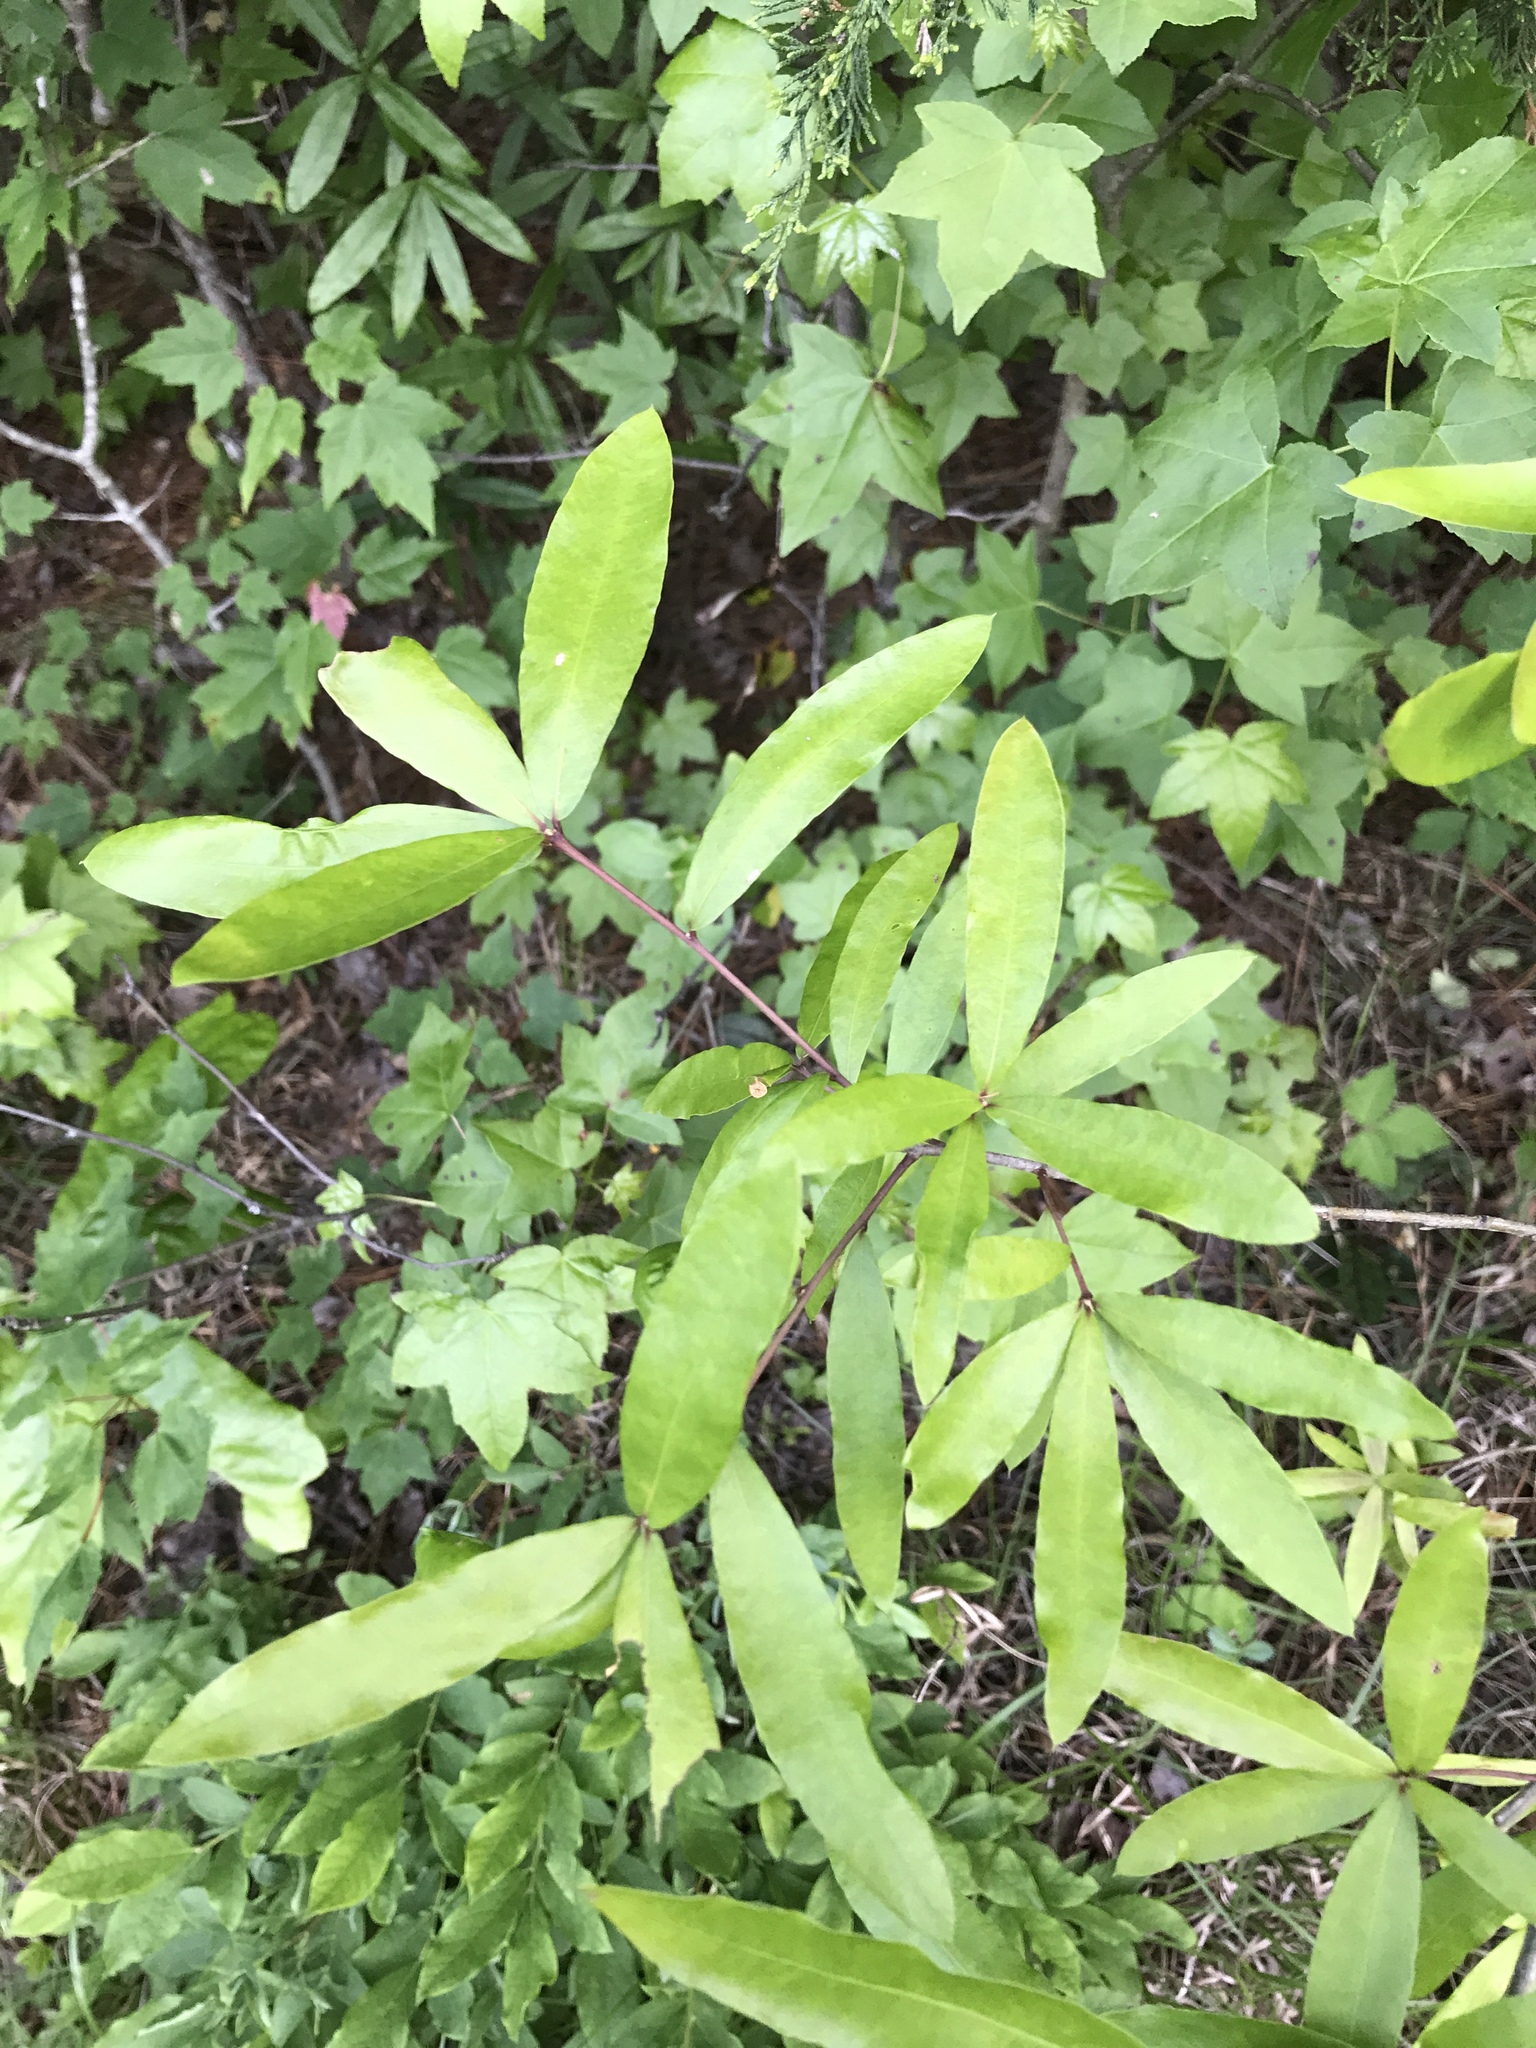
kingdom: Plantae
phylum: Tracheophyta
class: Magnoliopsida
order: Fagales
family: Fagaceae
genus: Quercus
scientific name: Quercus phellos
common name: Willow oak
